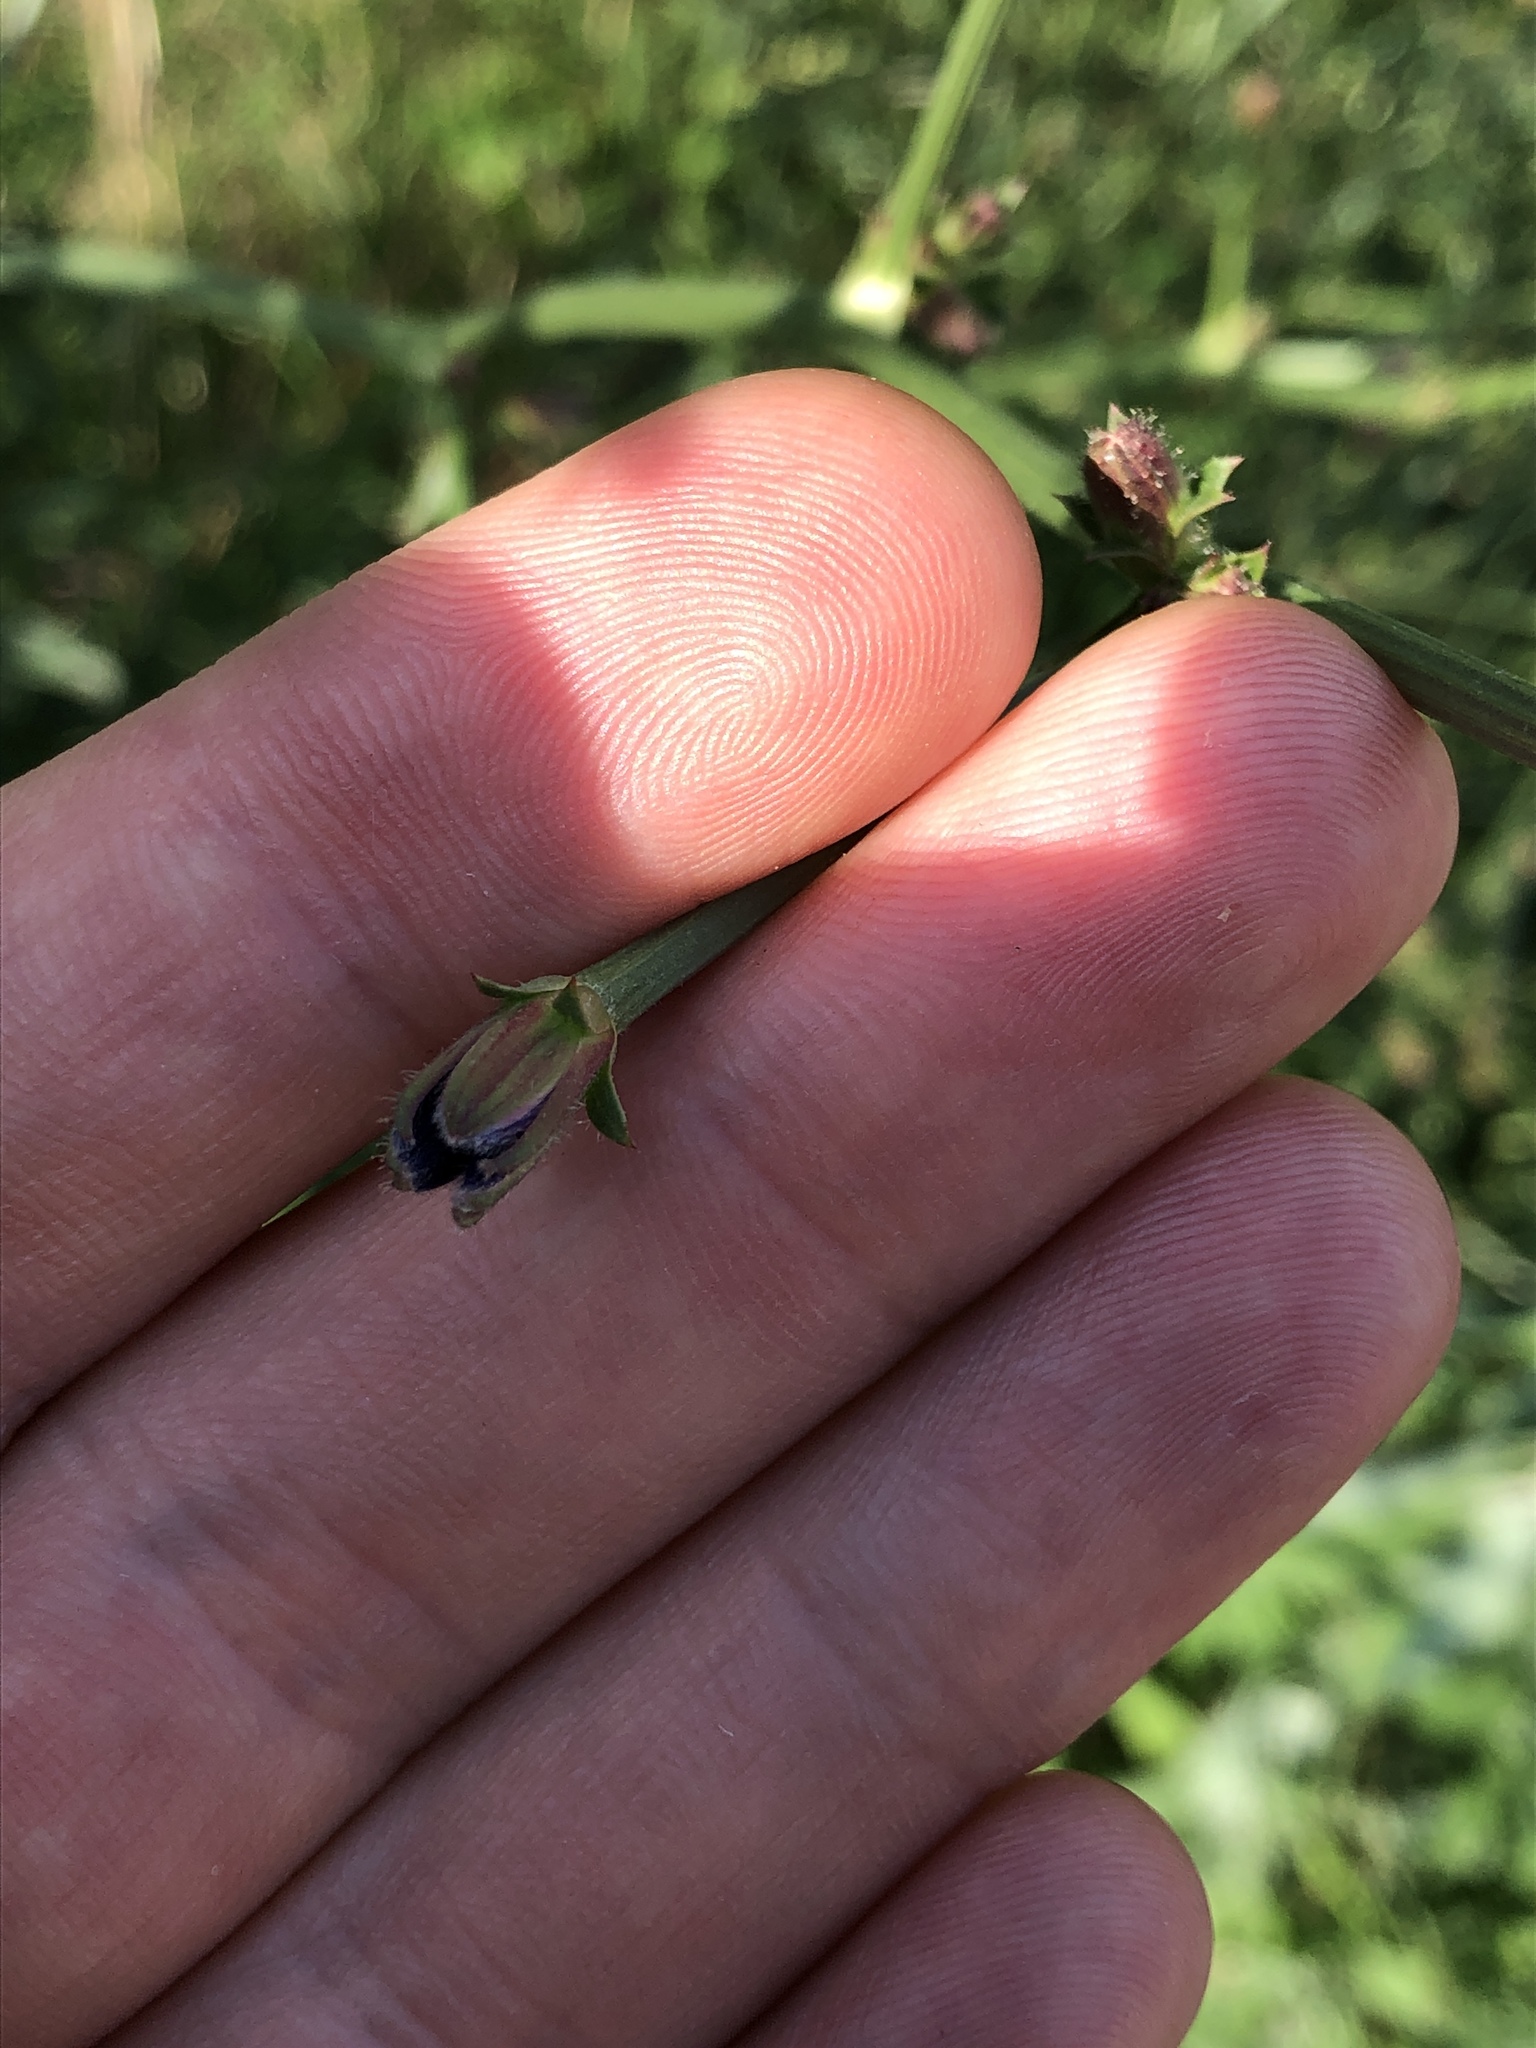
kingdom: Plantae
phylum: Tracheophyta
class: Magnoliopsida
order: Asterales
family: Asteraceae
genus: Cichorium
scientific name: Cichorium intybus
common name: Chicory
